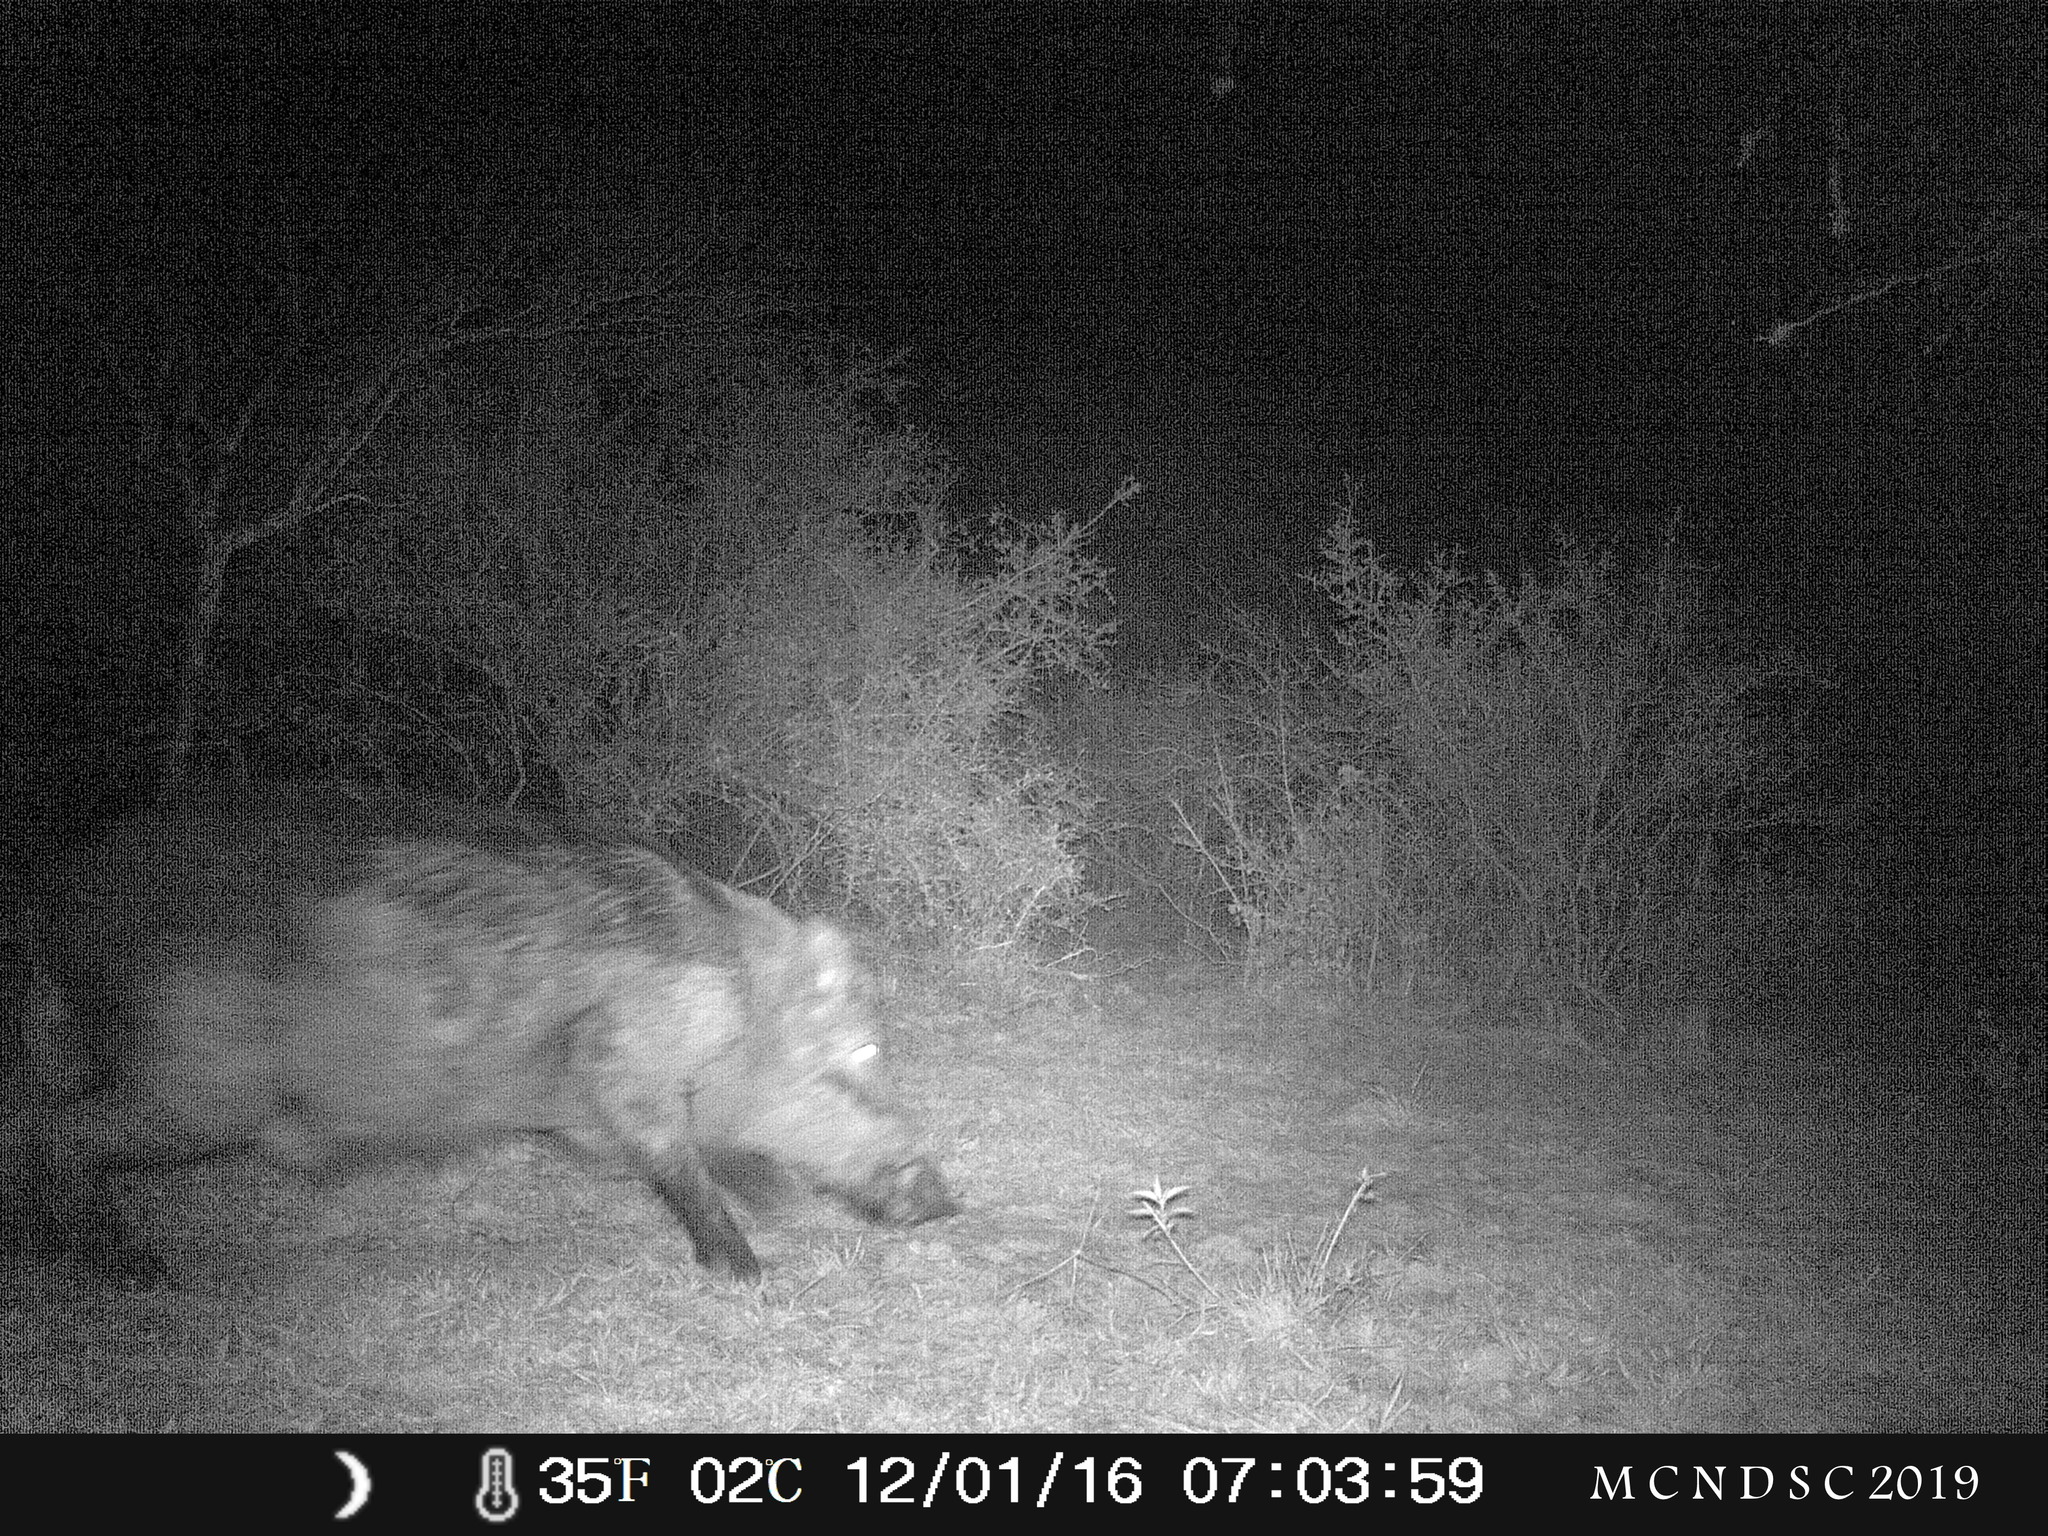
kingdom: Animalia
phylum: Chordata
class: Mammalia
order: Artiodactyla
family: Suidae
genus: Sus
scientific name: Sus scrofa
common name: Wild boar
